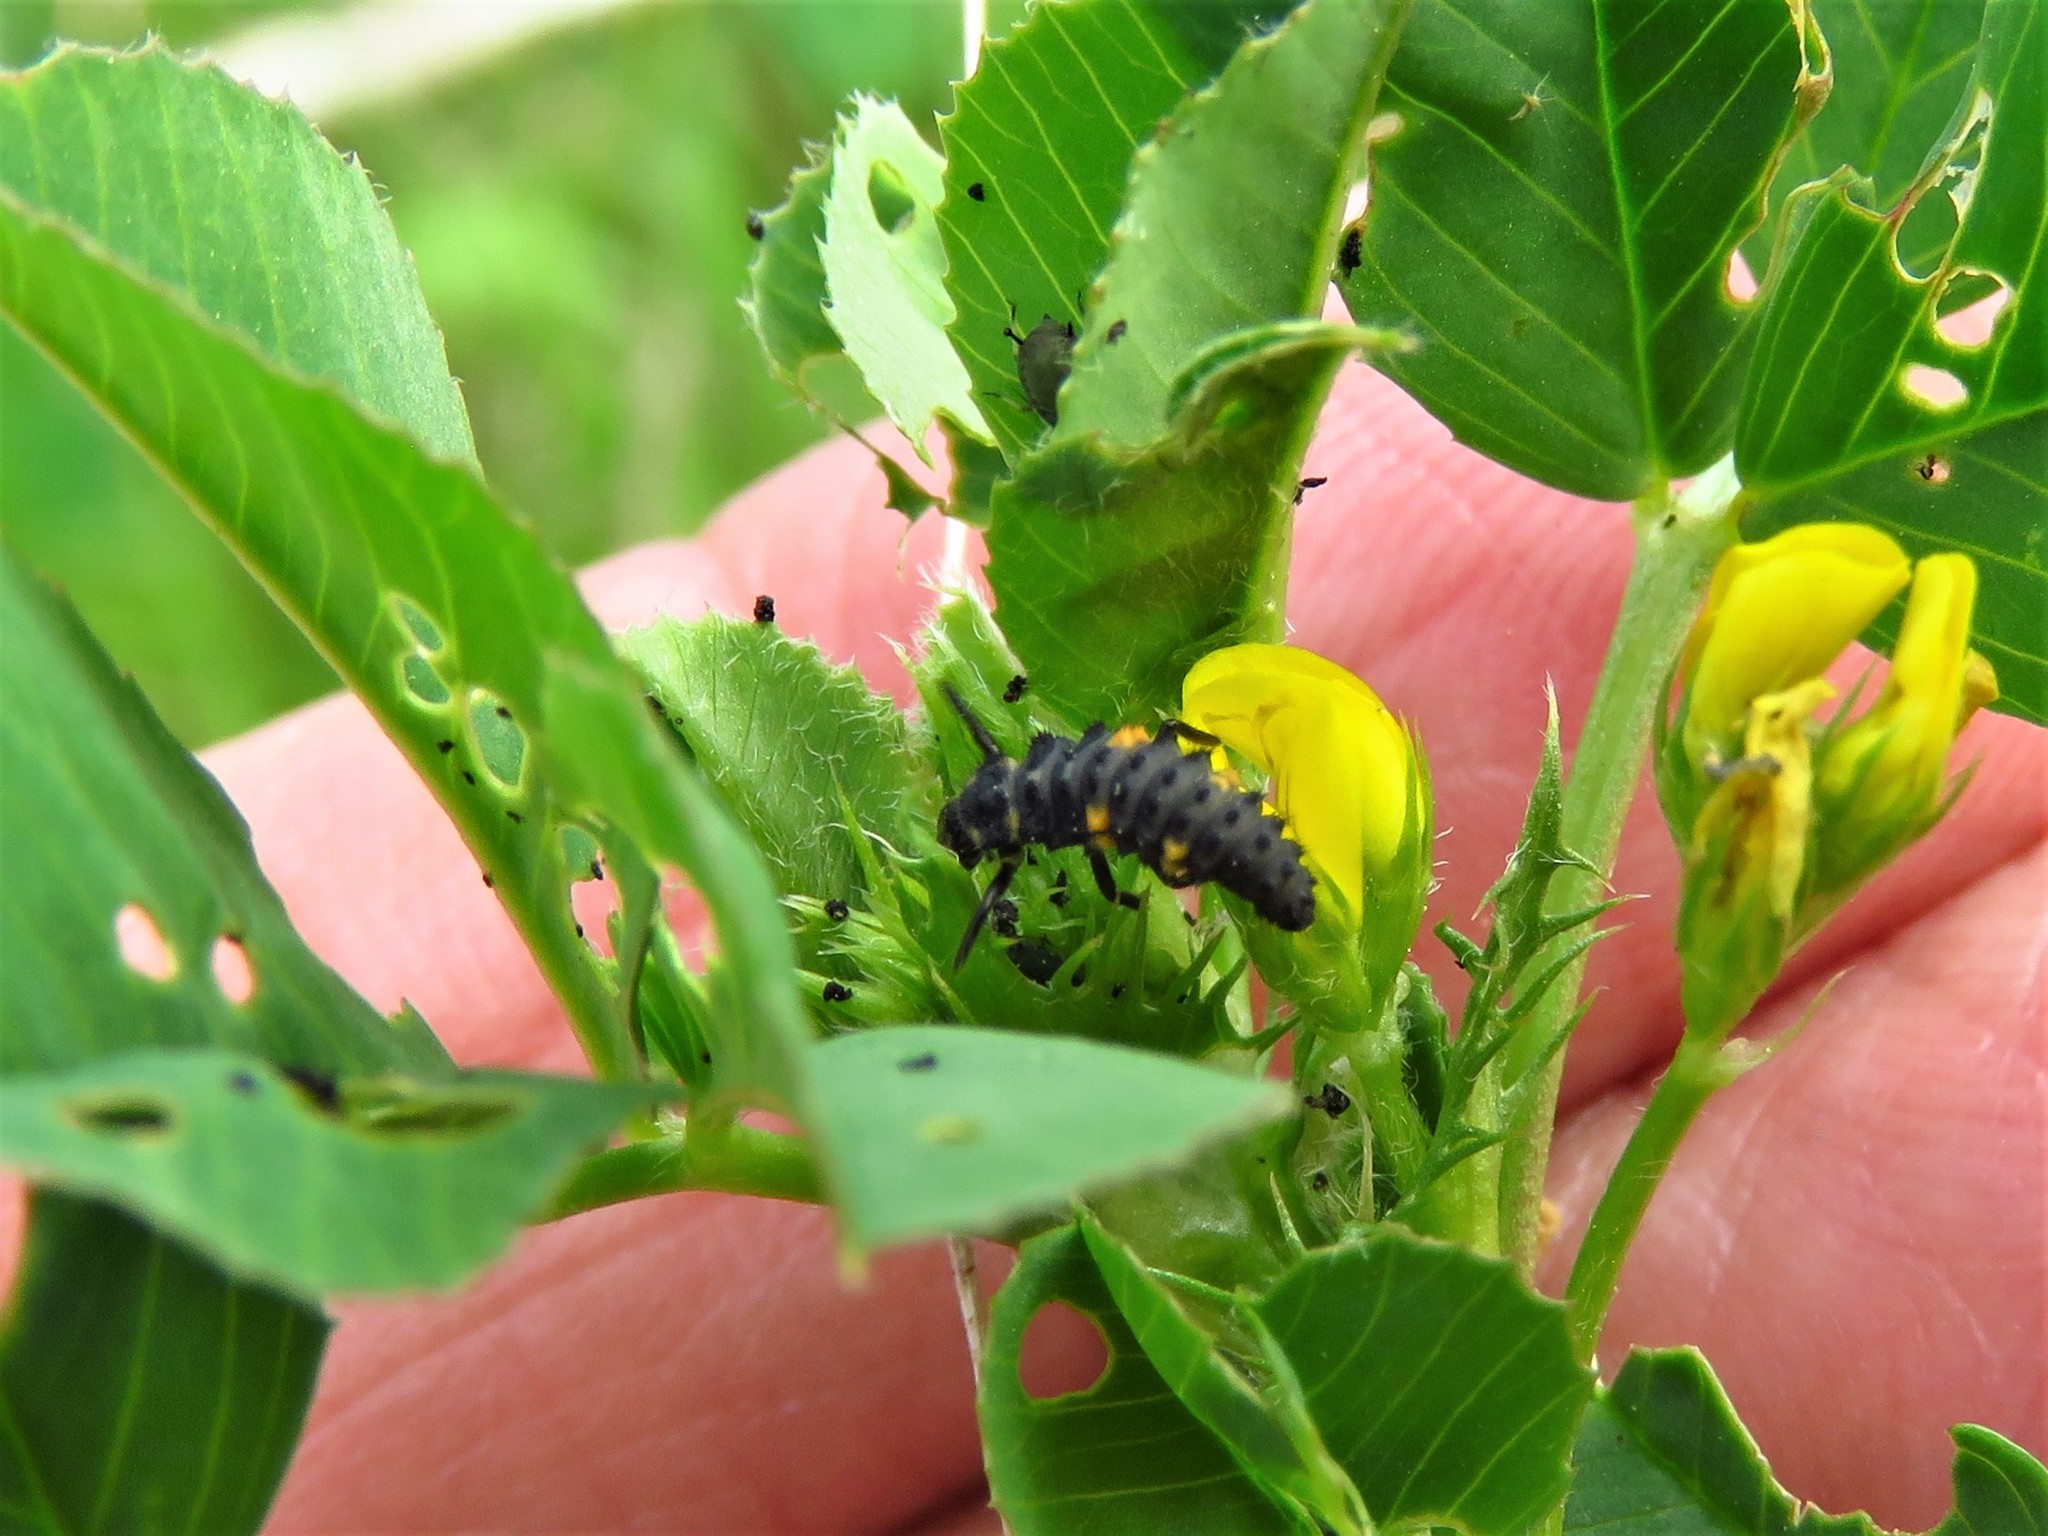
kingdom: Animalia
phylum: Arthropoda
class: Insecta
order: Coleoptera
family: Coccinellidae
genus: Coccinella
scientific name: Coccinella septempunctata
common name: Sevenspotted lady beetle
